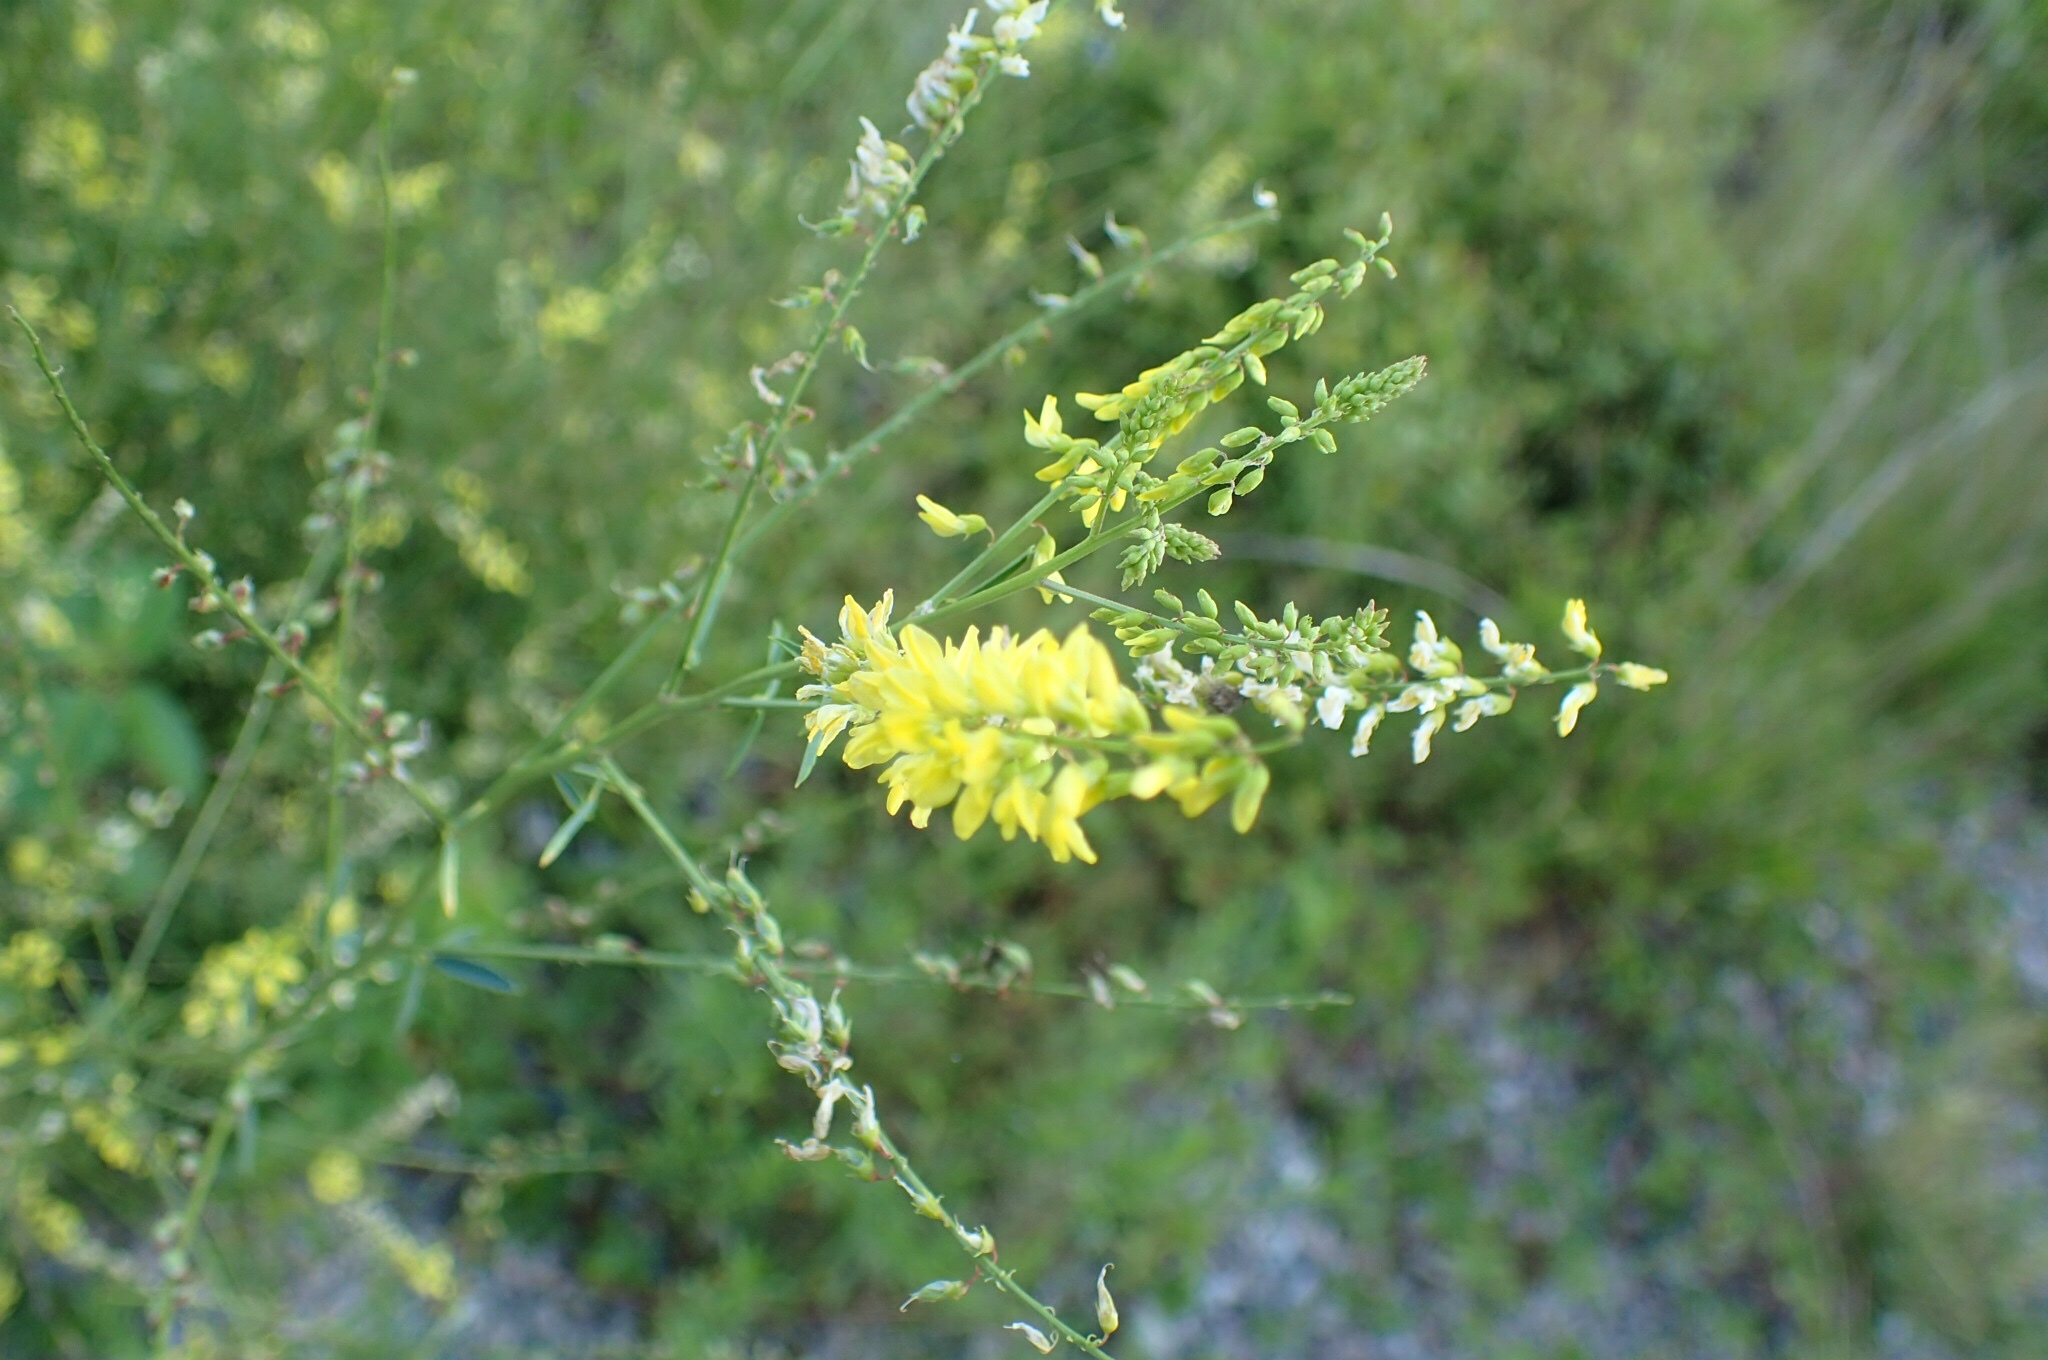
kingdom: Plantae
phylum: Tracheophyta
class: Magnoliopsida
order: Fabales
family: Fabaceae
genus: Melilotus
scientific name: Melilotus officinalis
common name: Sweetclover
